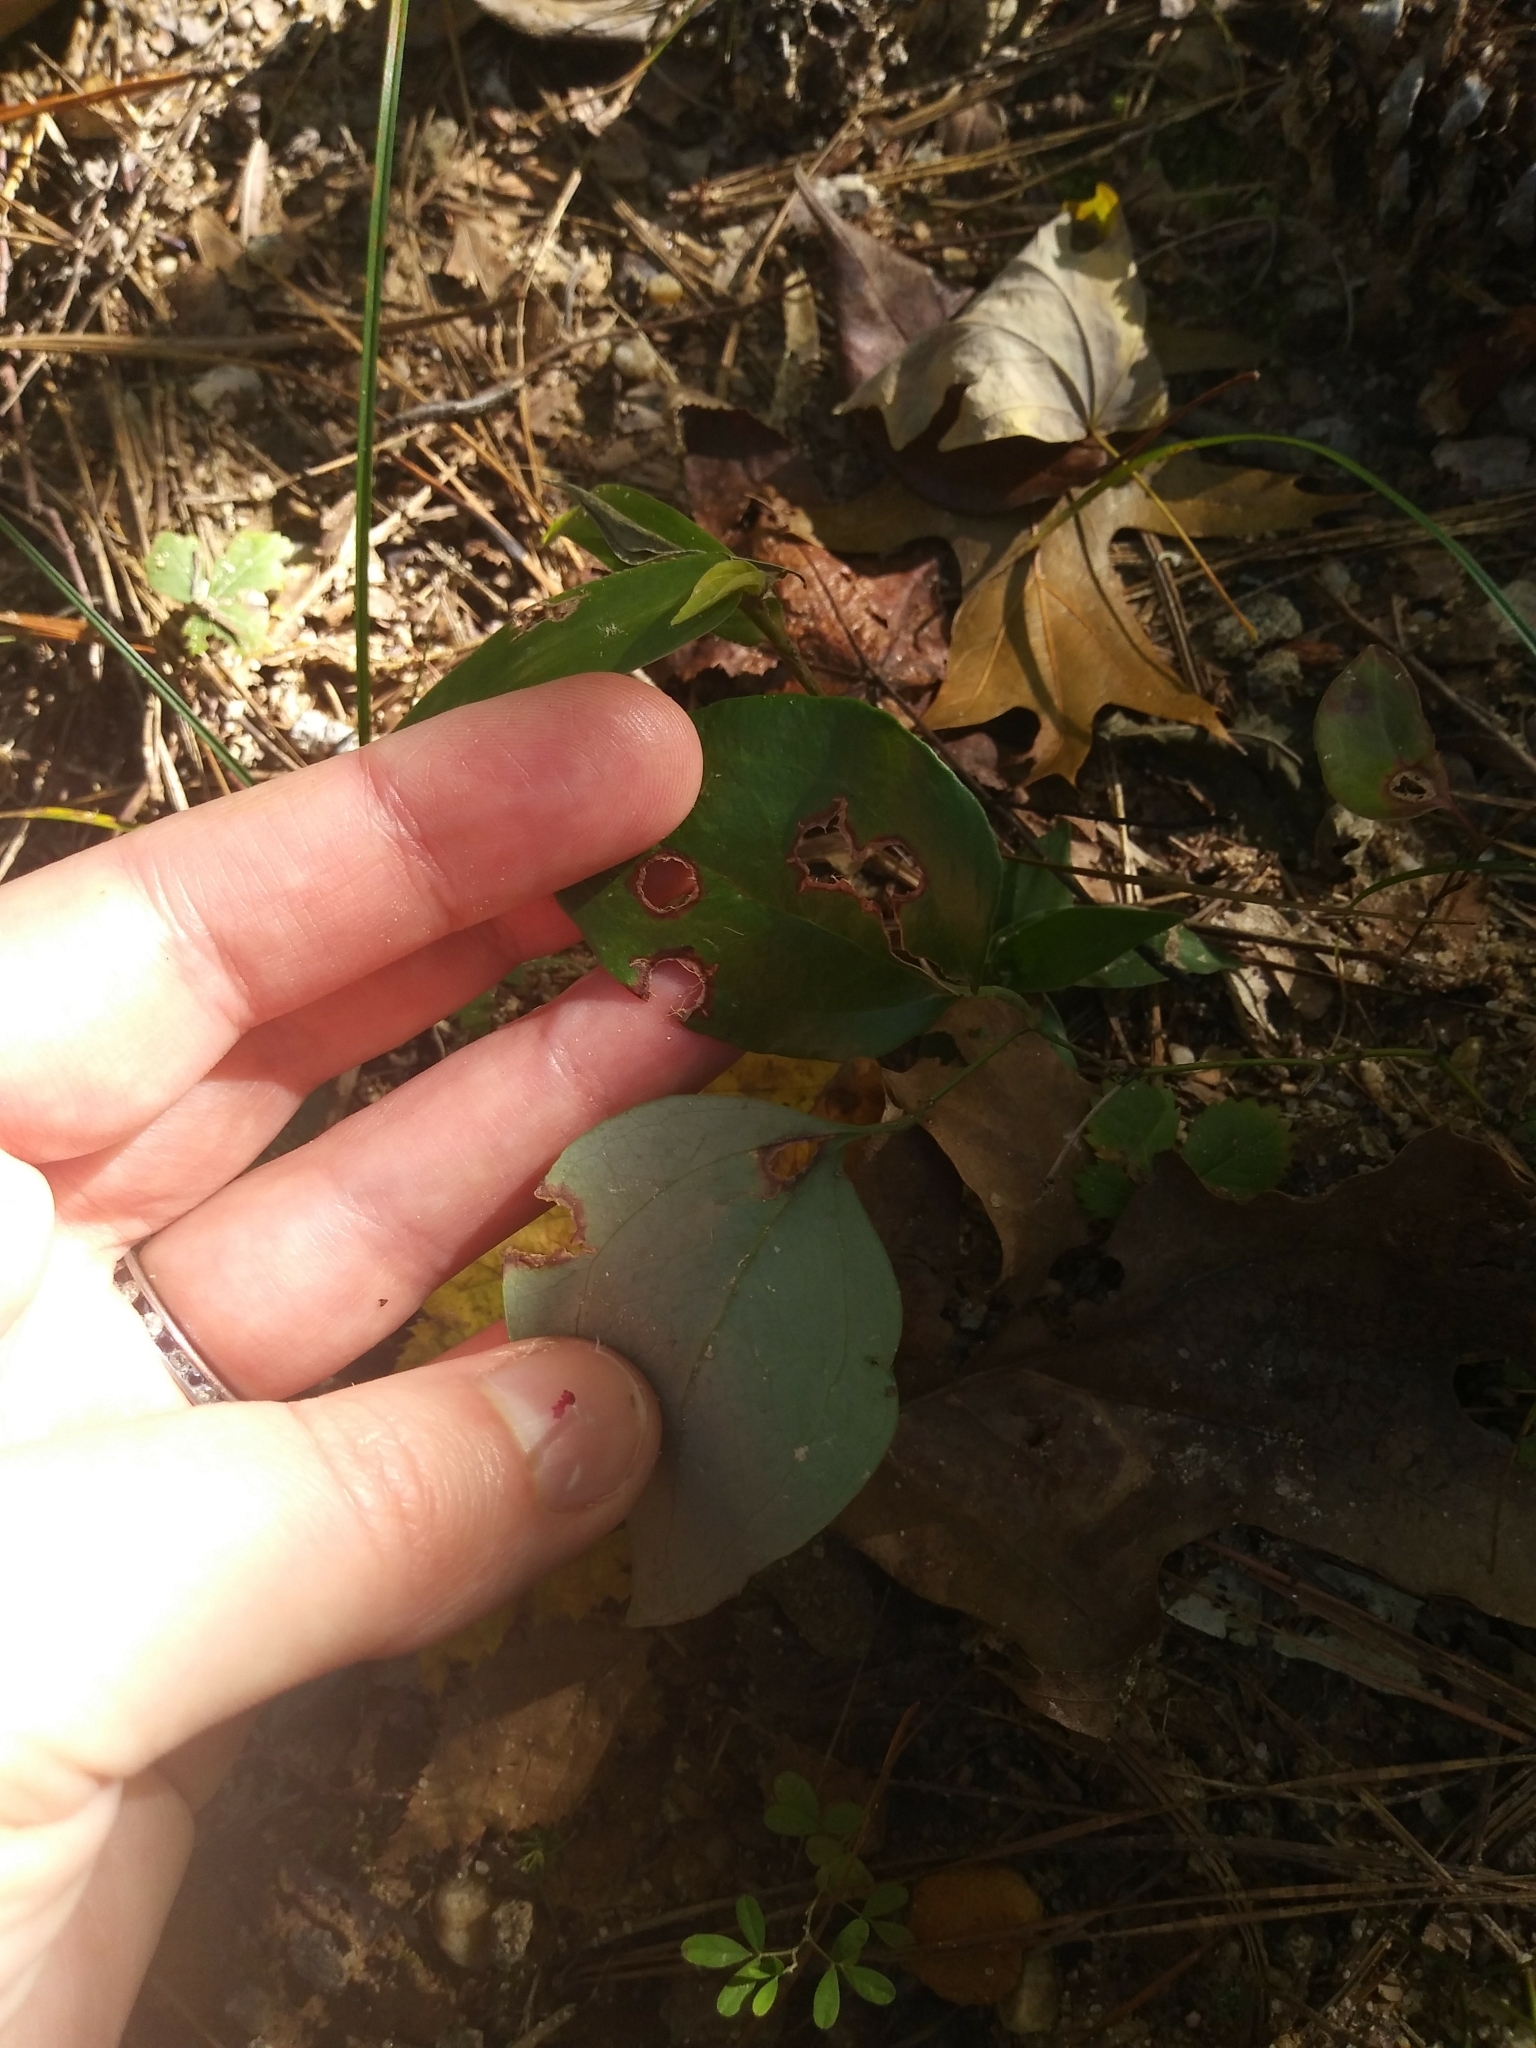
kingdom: Plantae
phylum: Tracheophyta
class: Liliopsida
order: Liliales
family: Smilacaceae
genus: Smilax
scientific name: Smilax glauca
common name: Cat greenbrier
